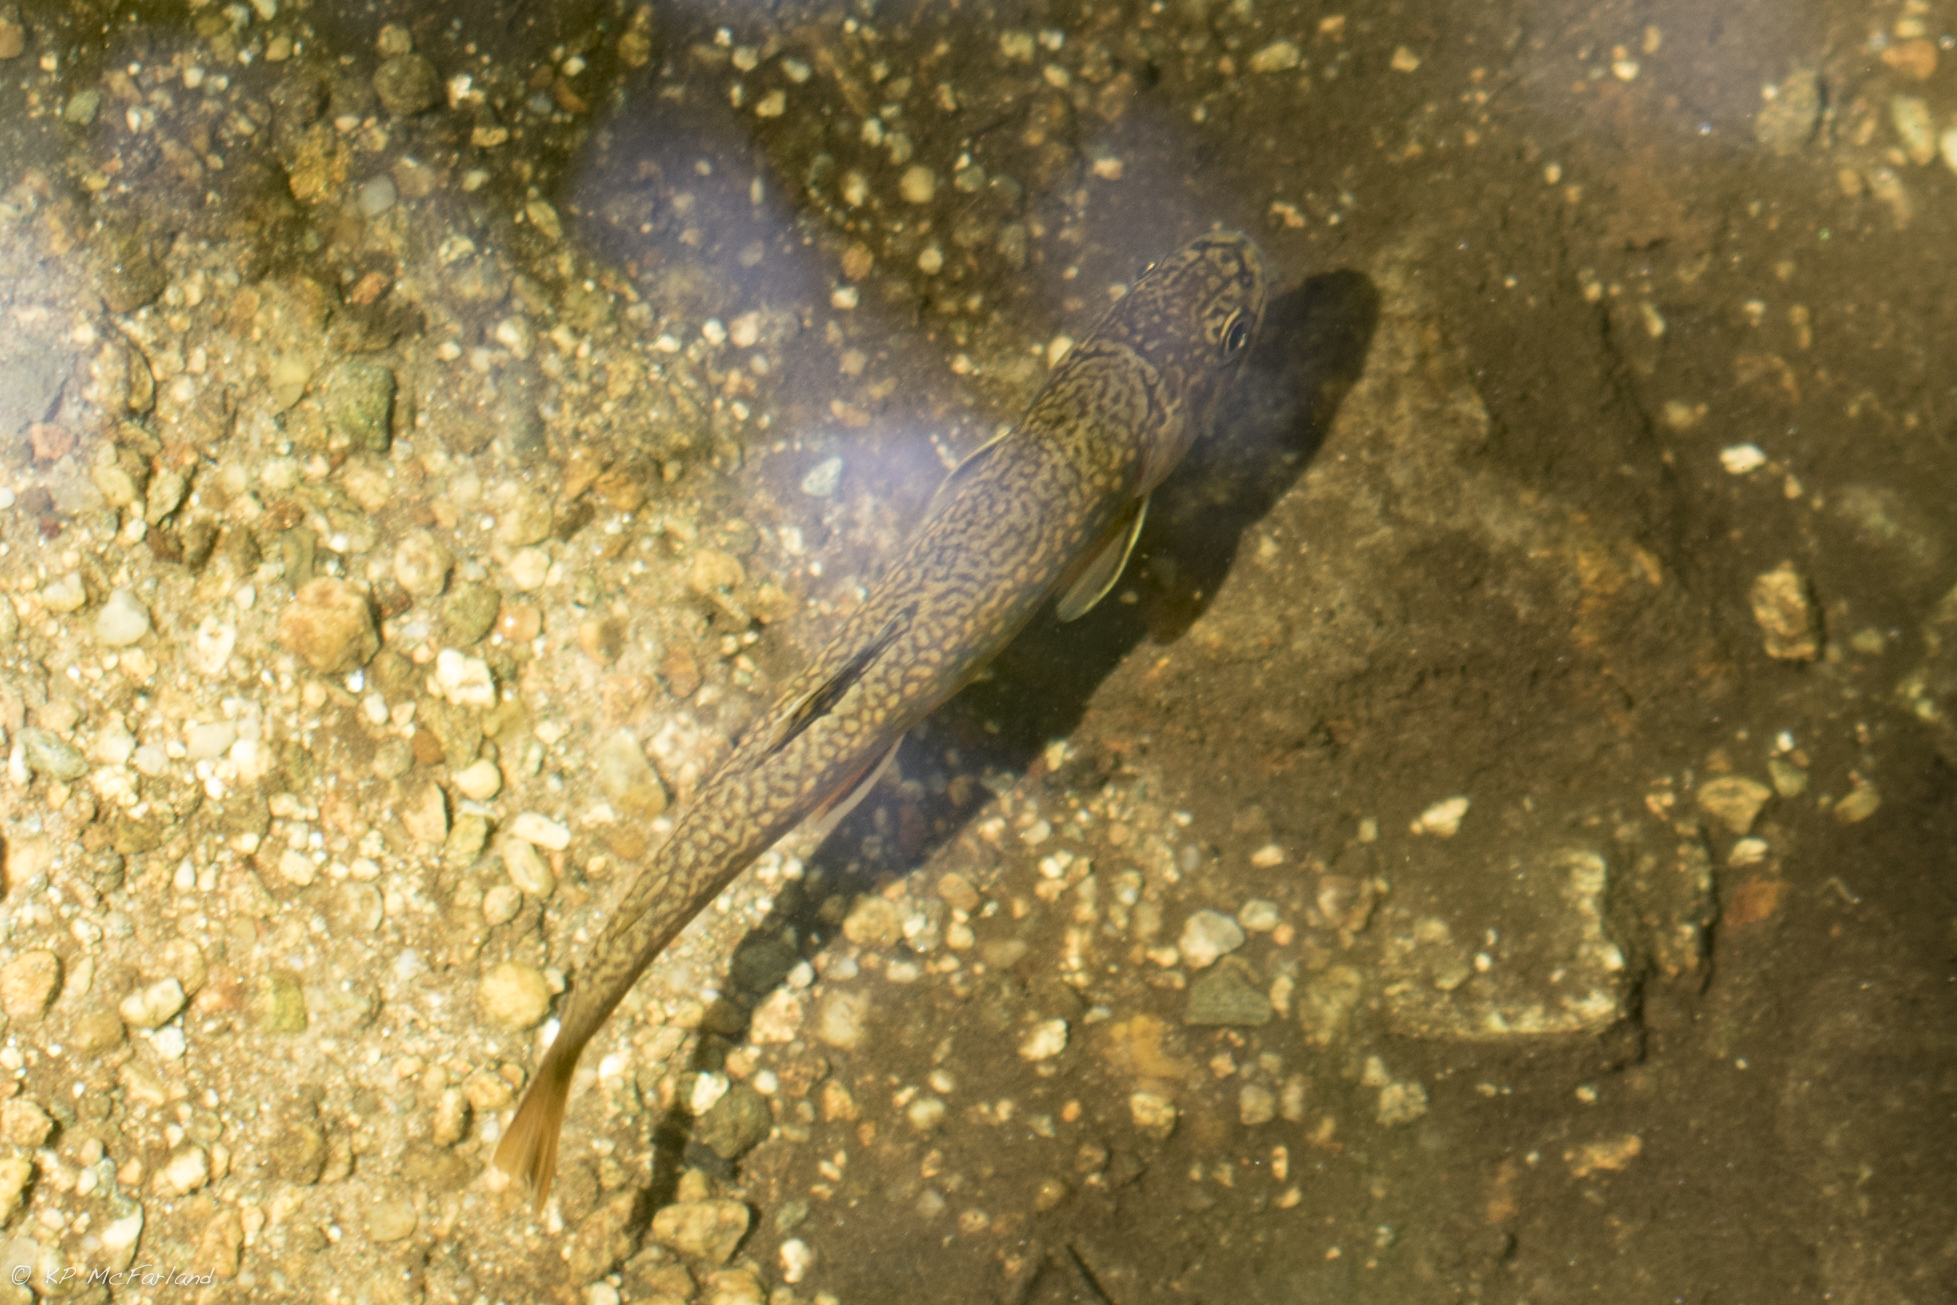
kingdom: Animalia
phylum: Chordata
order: Salmoniformes
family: Salmonidae
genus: Salvelinus
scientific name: Salvelinus fontinalis
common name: Brook trout
